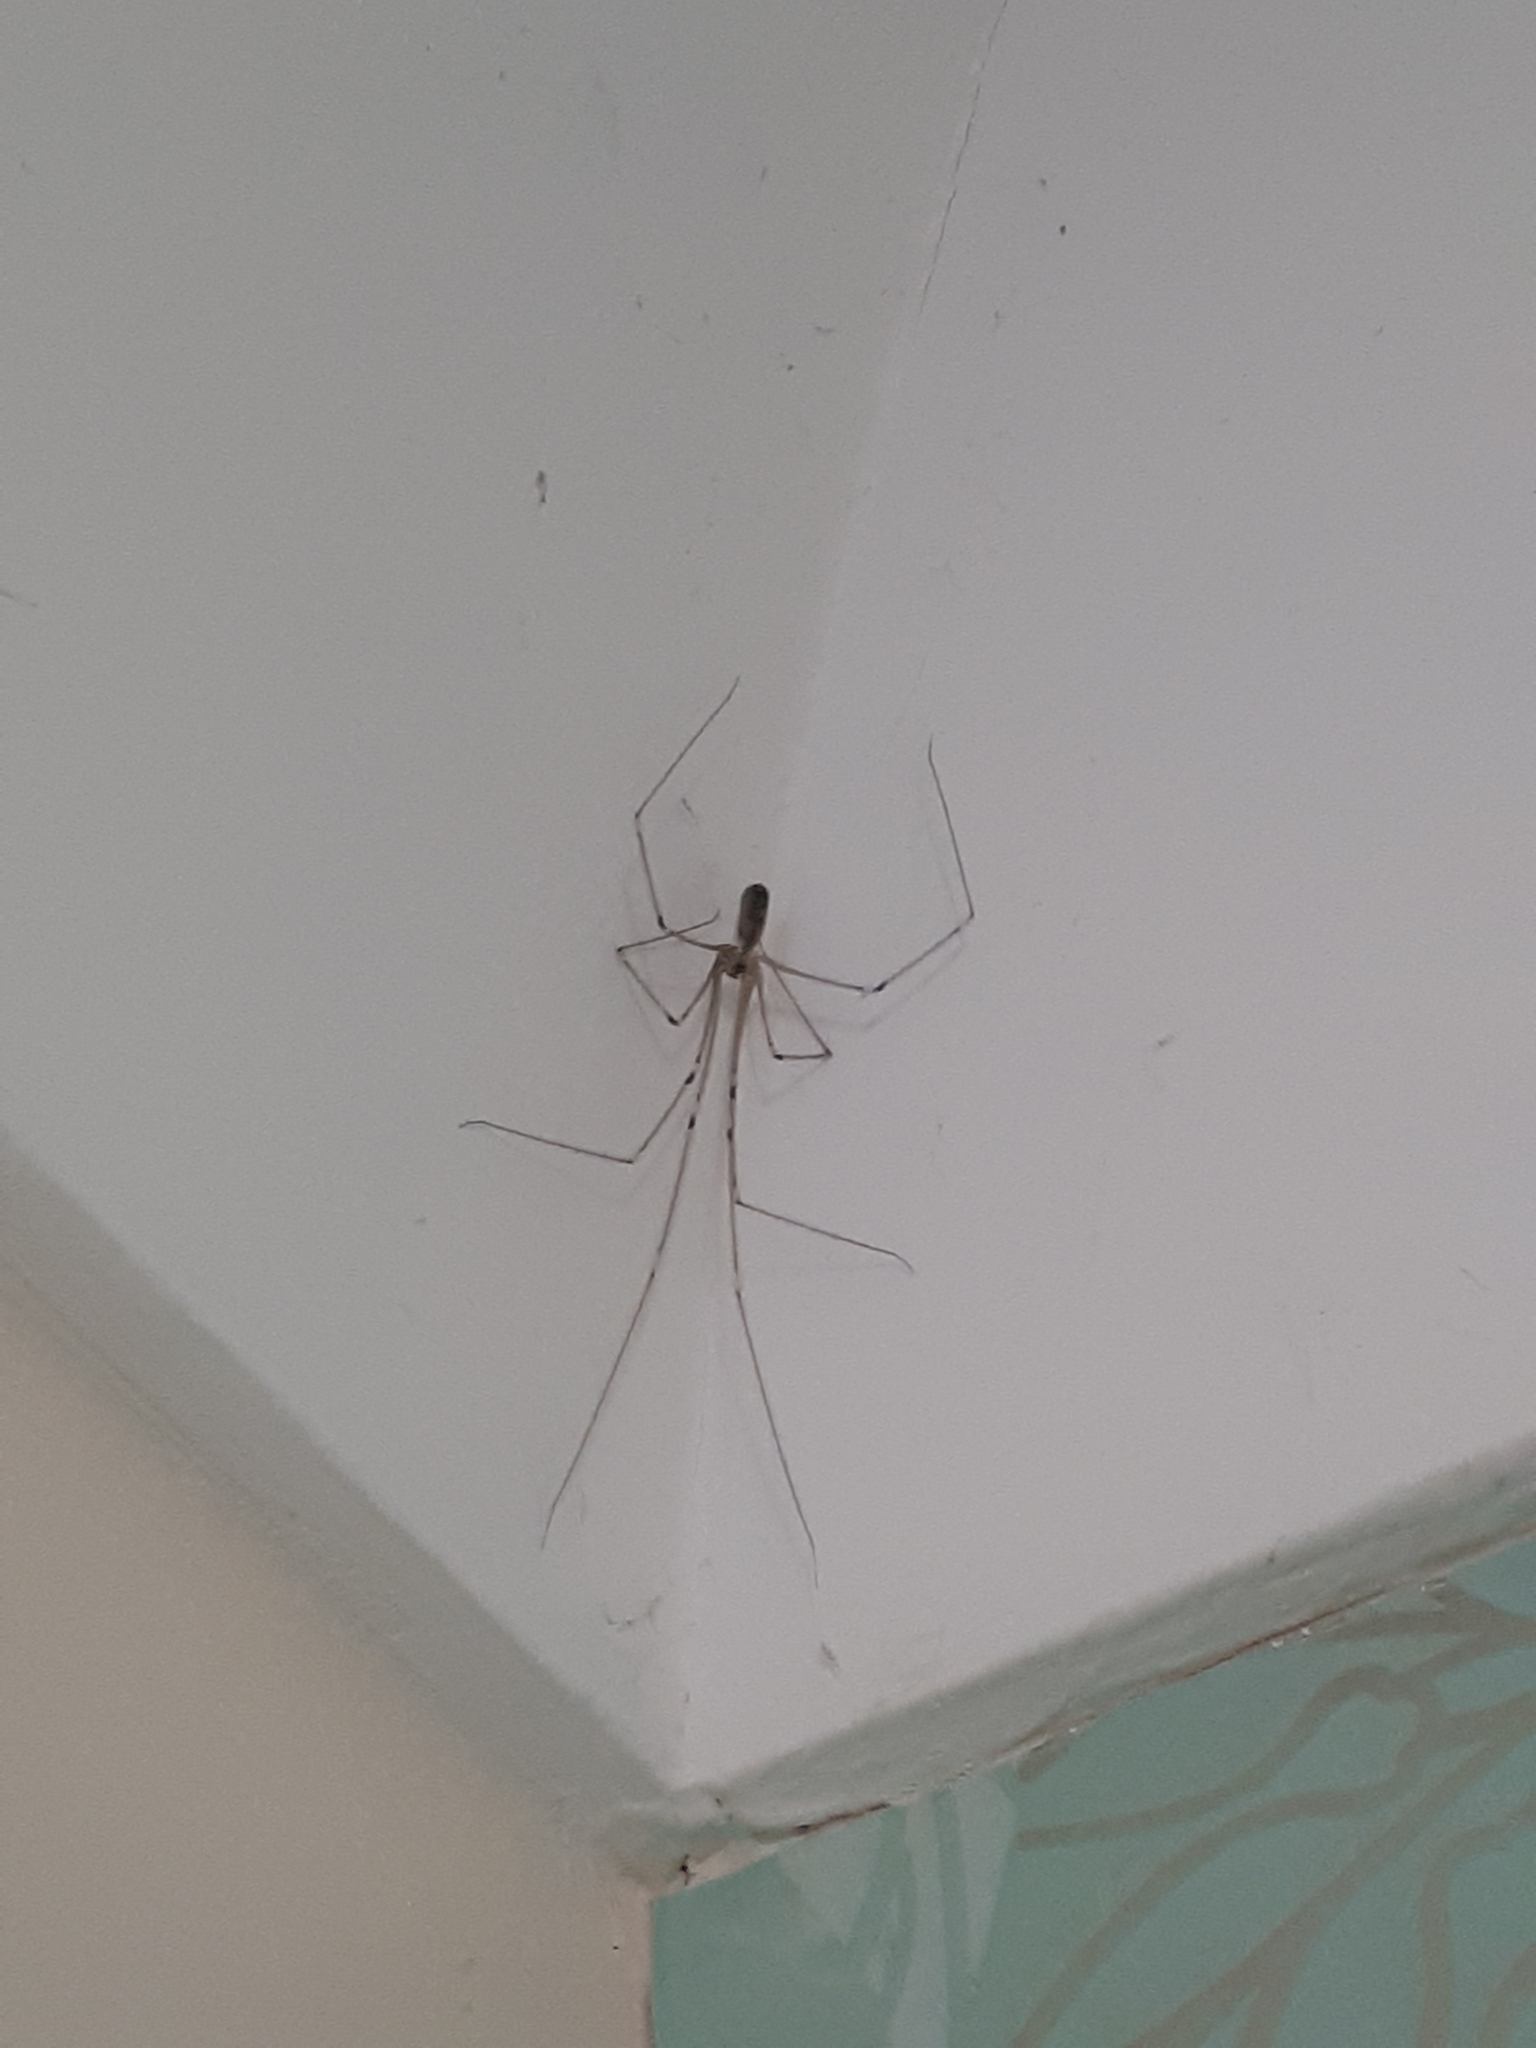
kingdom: Animalia
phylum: Arthropoda
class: Arachnida
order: Araneae
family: Pholcidae
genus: Pholcus
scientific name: Pholcus phalangioides
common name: Longbodied cellar spider
